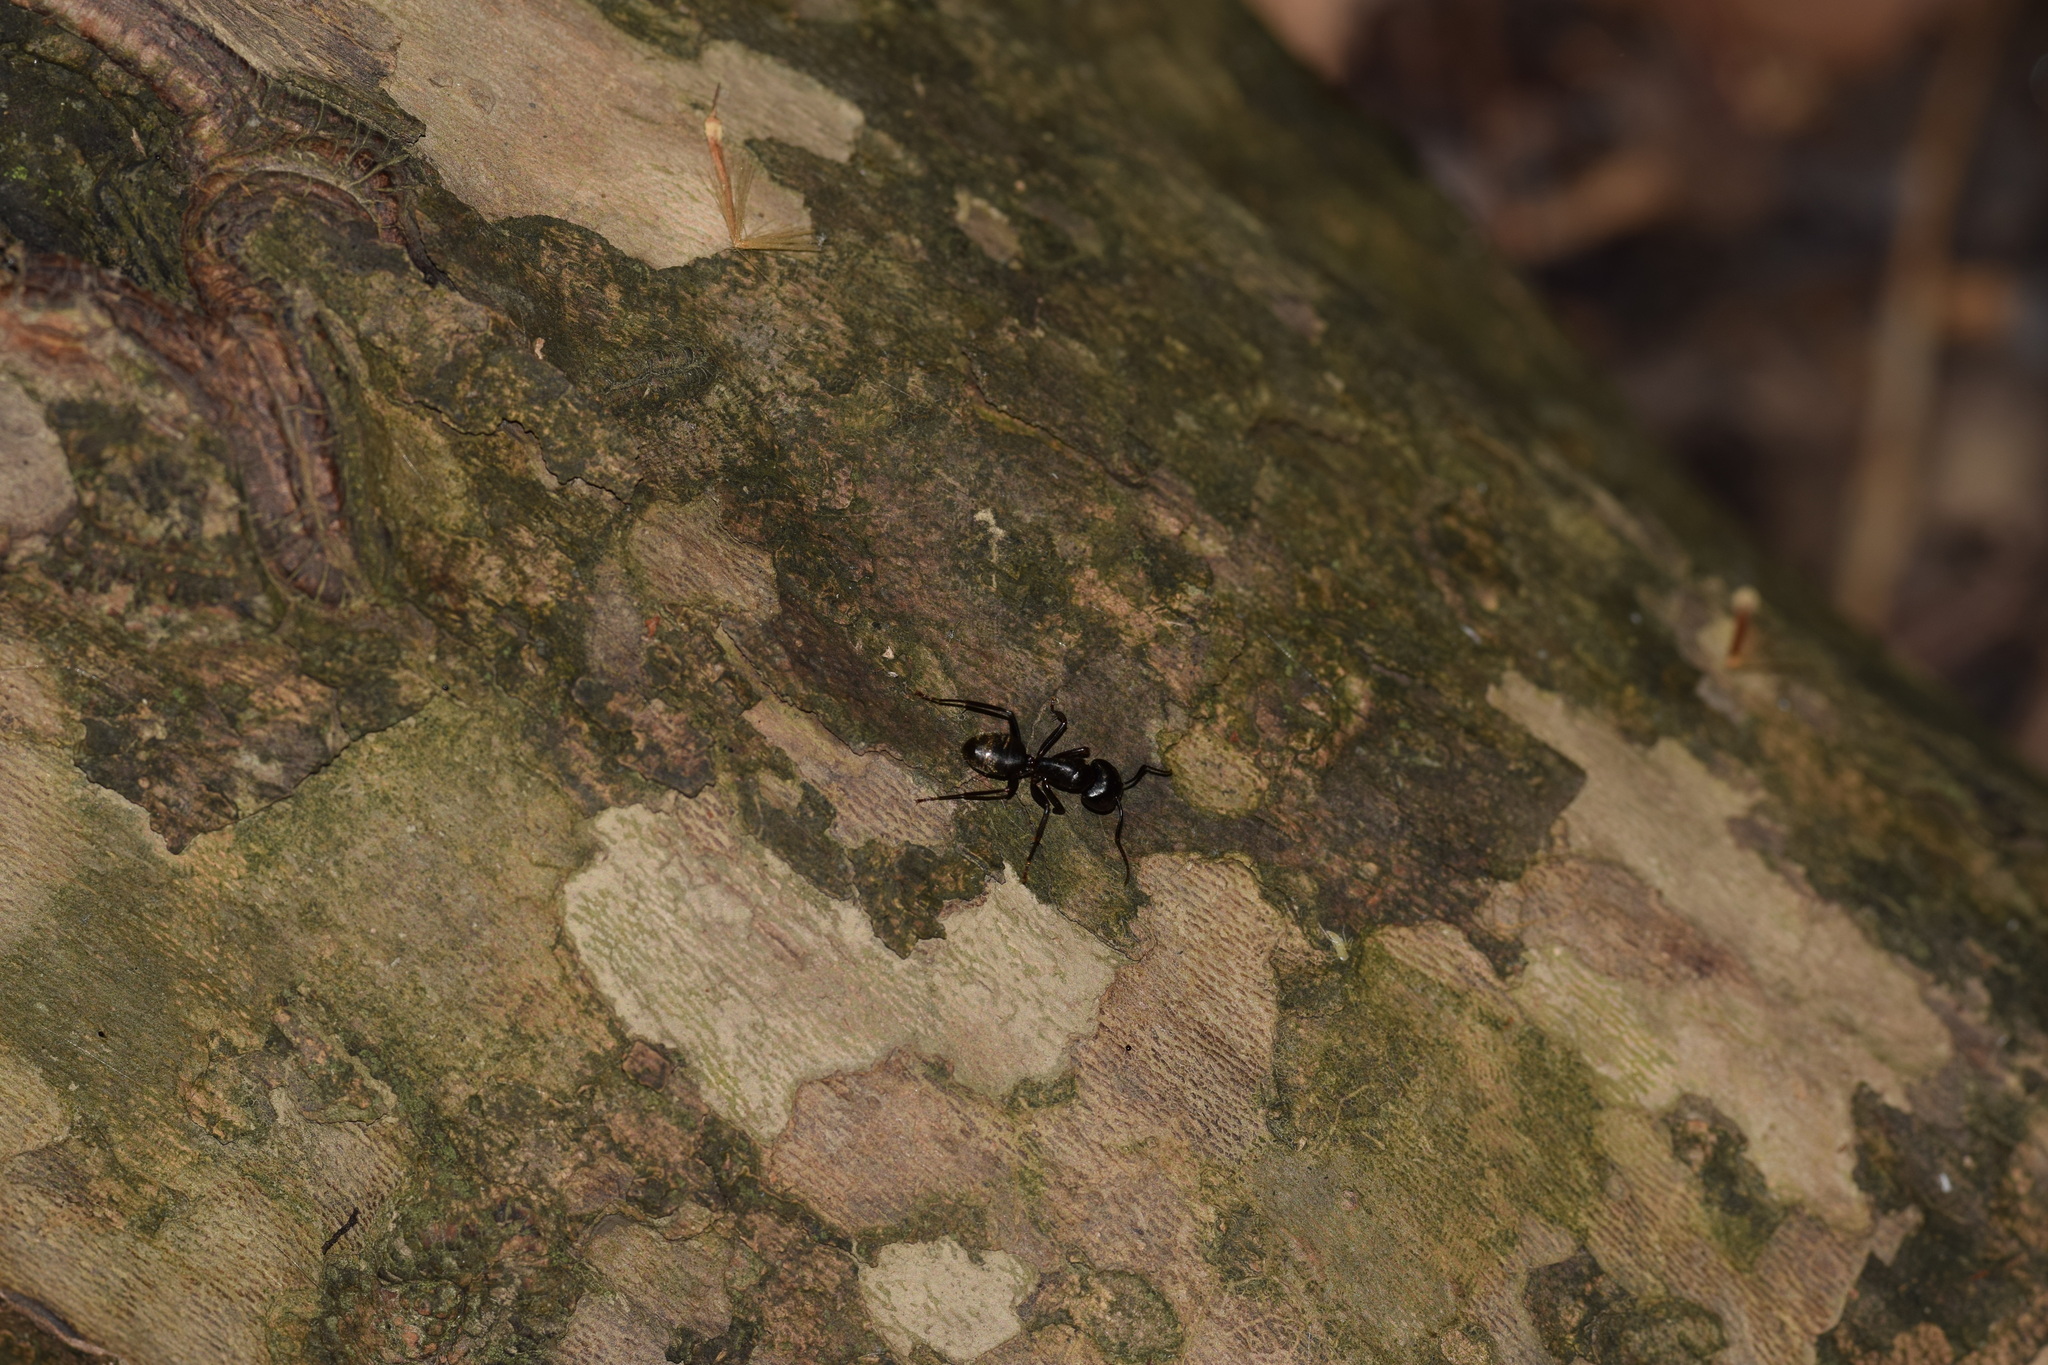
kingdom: Animalia
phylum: Arthropoda
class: Insecta
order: Hymenoptera
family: Formicidae
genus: Camponotus
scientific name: Camponotus pennsylvanicus
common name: Black carpenter ant
